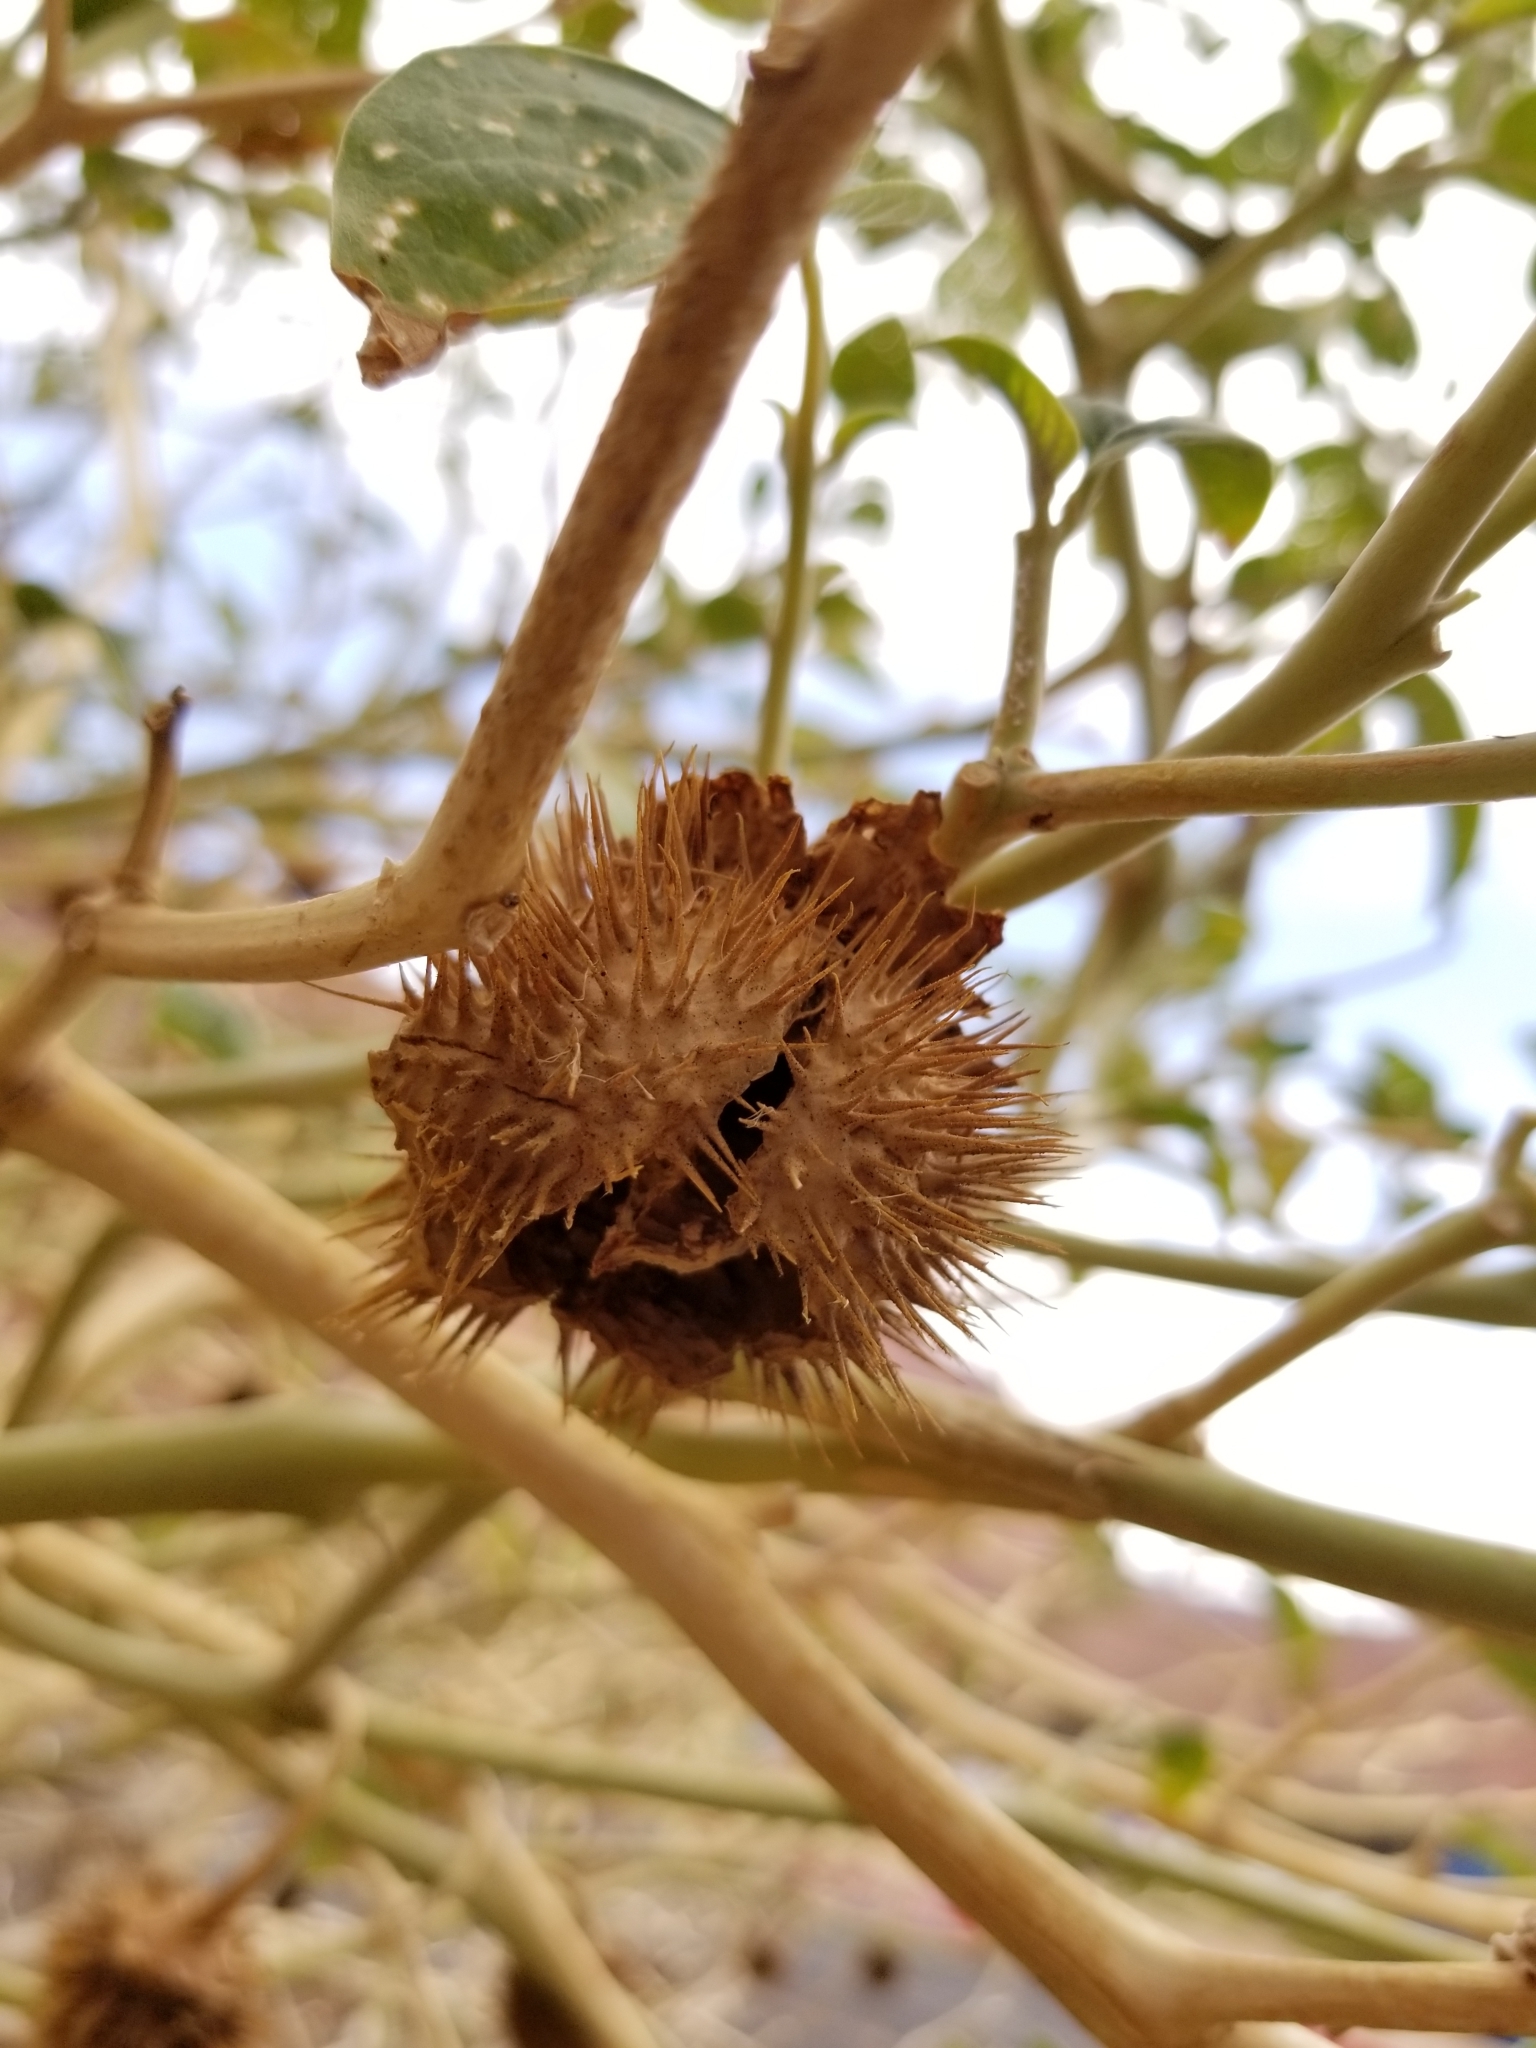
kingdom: Plantae
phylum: Tracheophyta
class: Magnoliopsida
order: Solanales
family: Solanaceae
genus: Datura
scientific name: Datura wrightii
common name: Sacred thorn-apple
